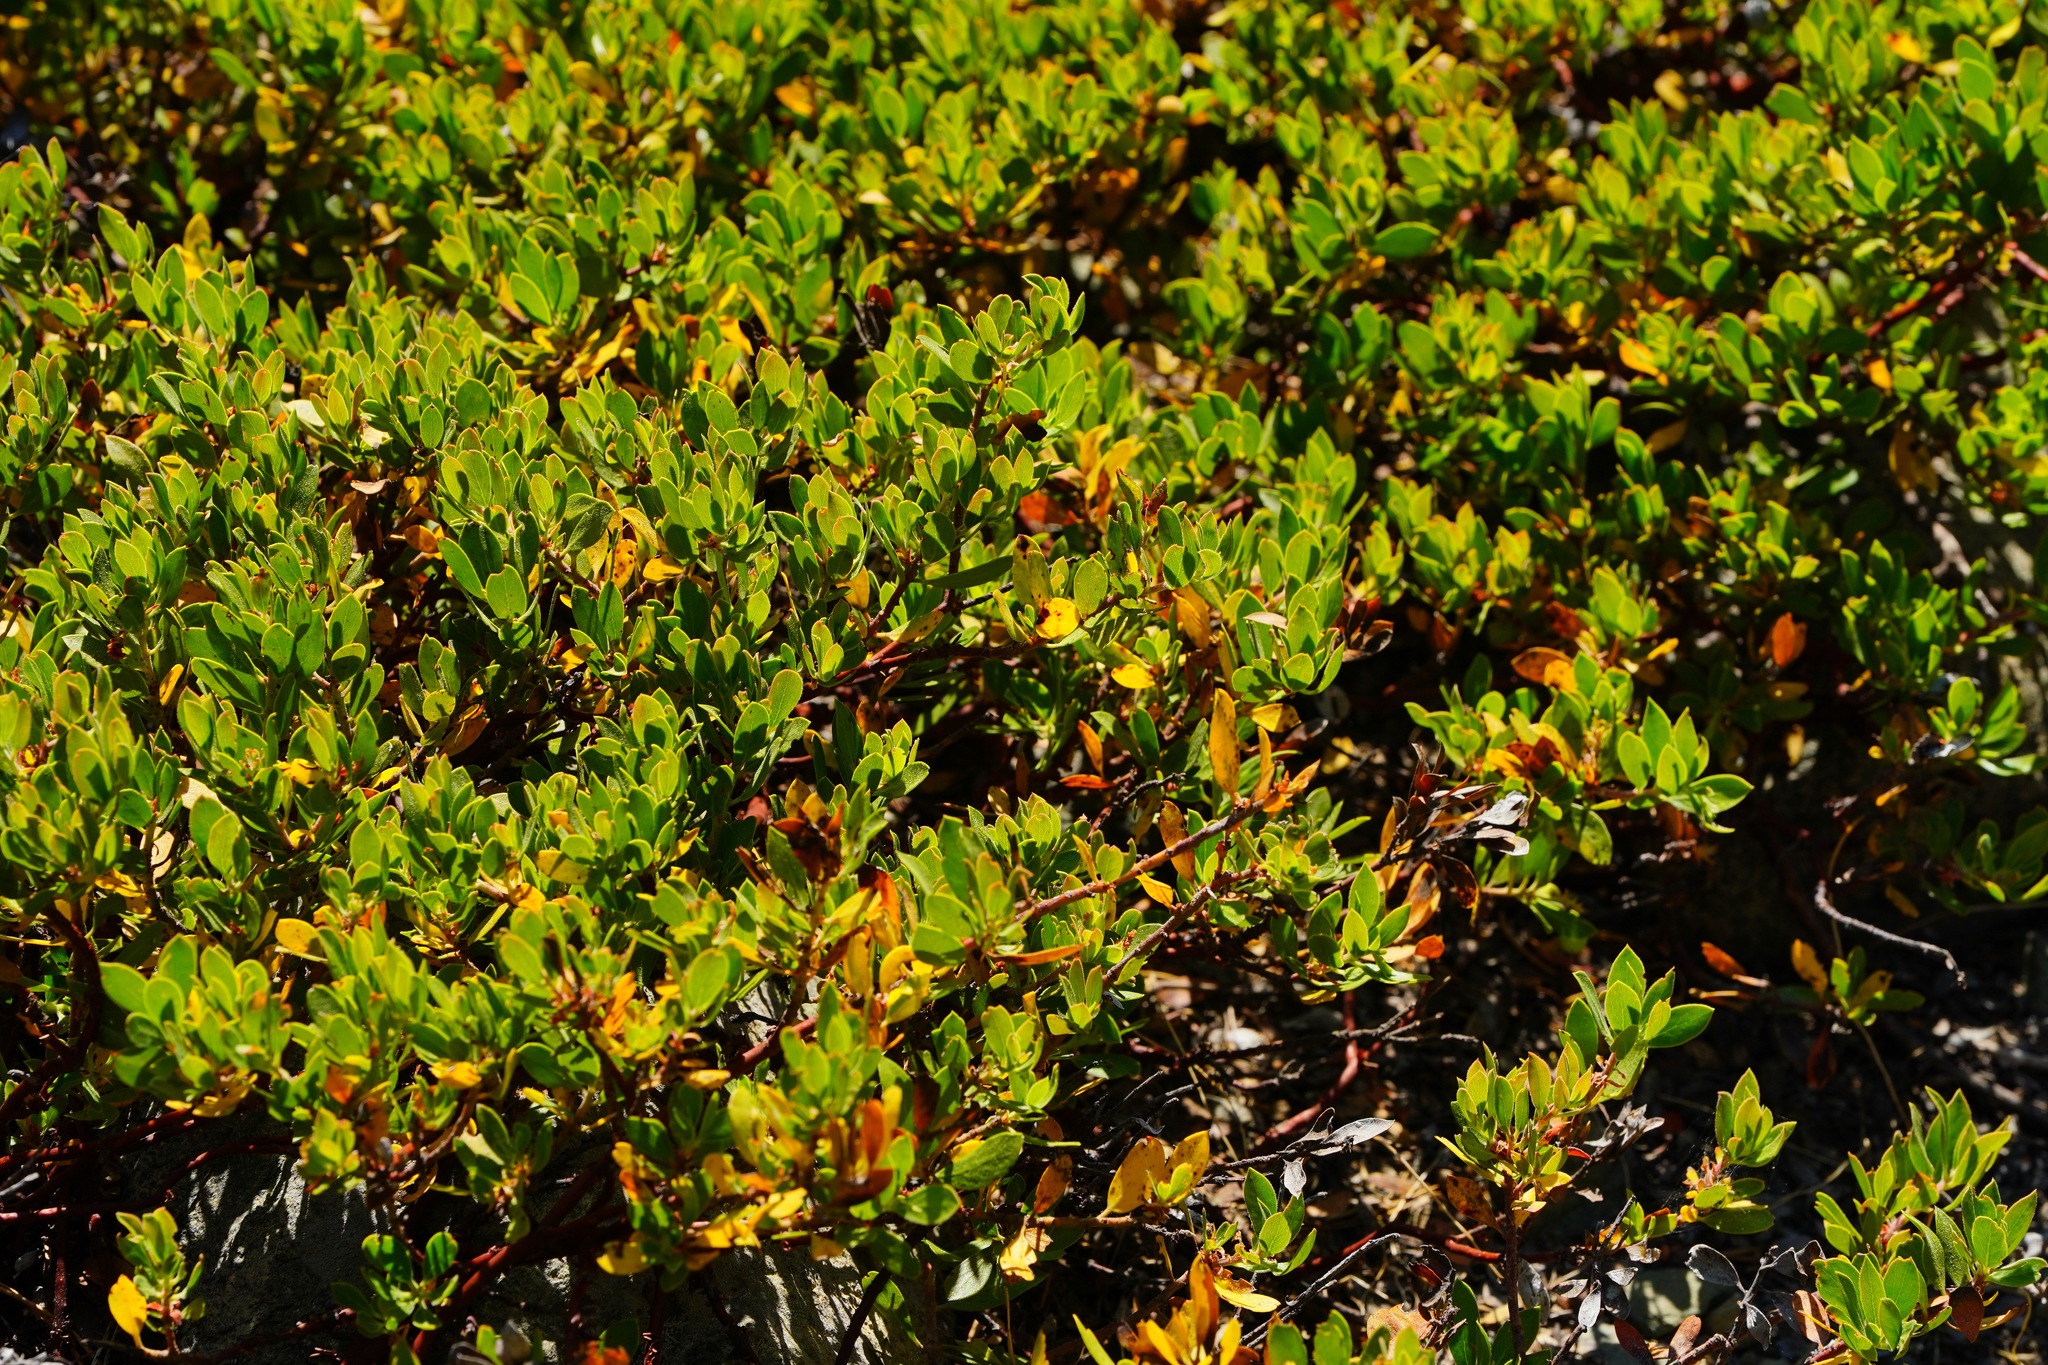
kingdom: Plantae
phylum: Tracheophyta
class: Magnoliopsida
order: Ericales
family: Ericaceae
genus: Arctostaphylos
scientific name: Arctostaphylos nevadensis
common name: Pinemat manzanita
